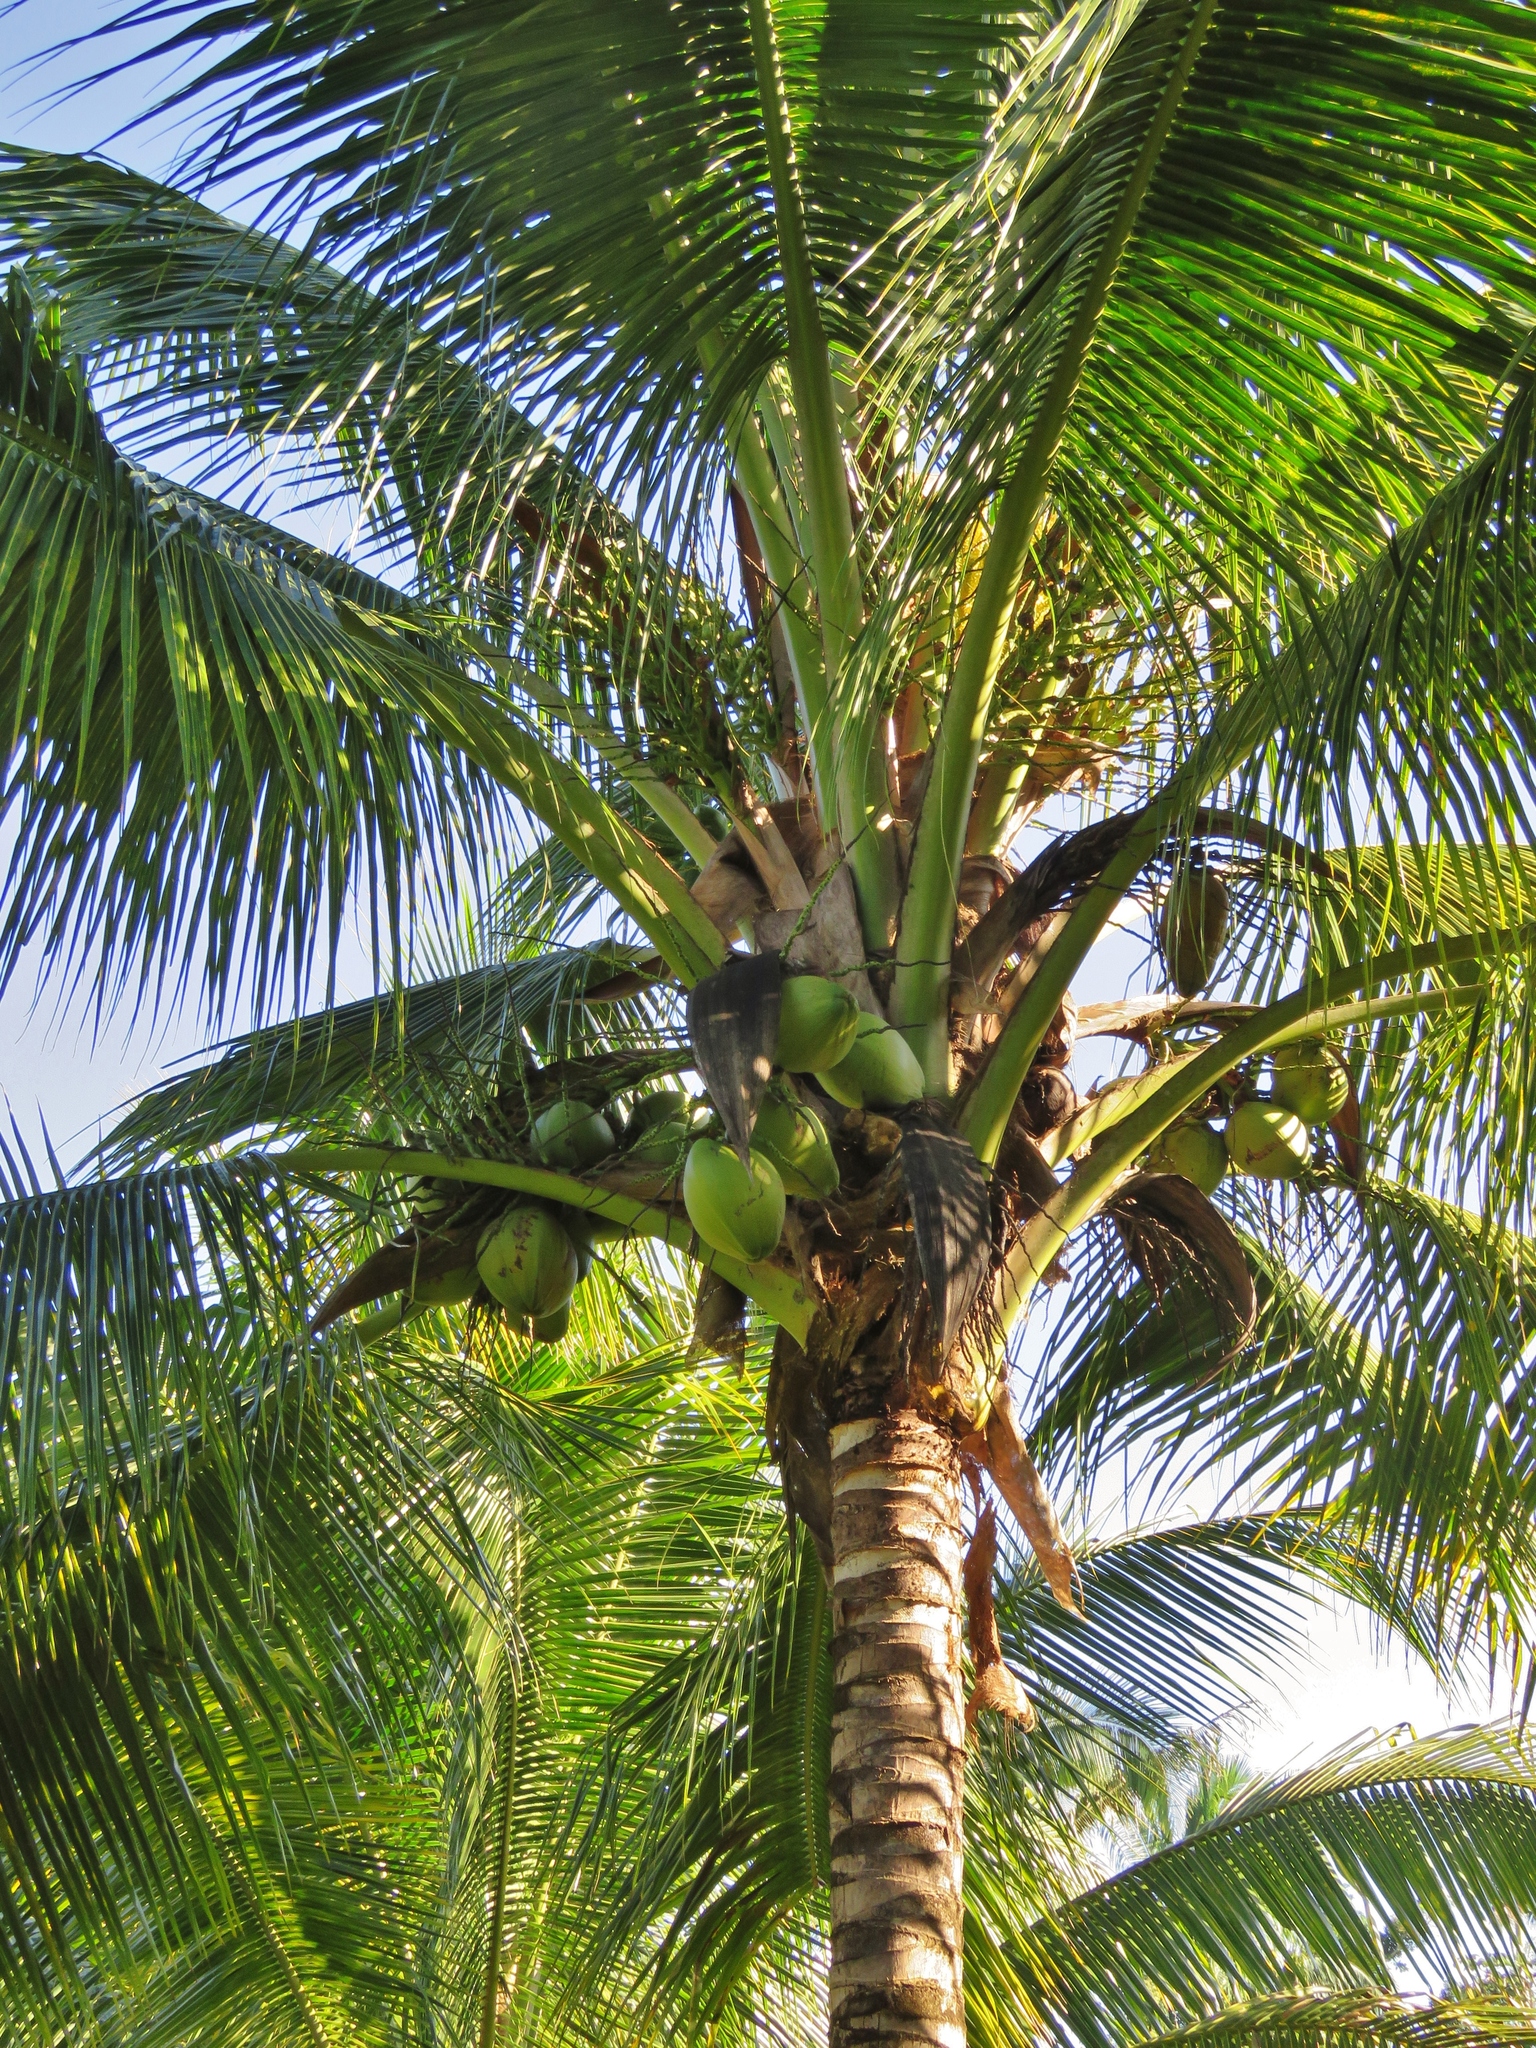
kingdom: Plantae
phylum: Tracheophyta
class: Liliopsida
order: Arecales
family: Arecaceae
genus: Cocos
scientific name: Cocos nucifera
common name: Coconut palm
